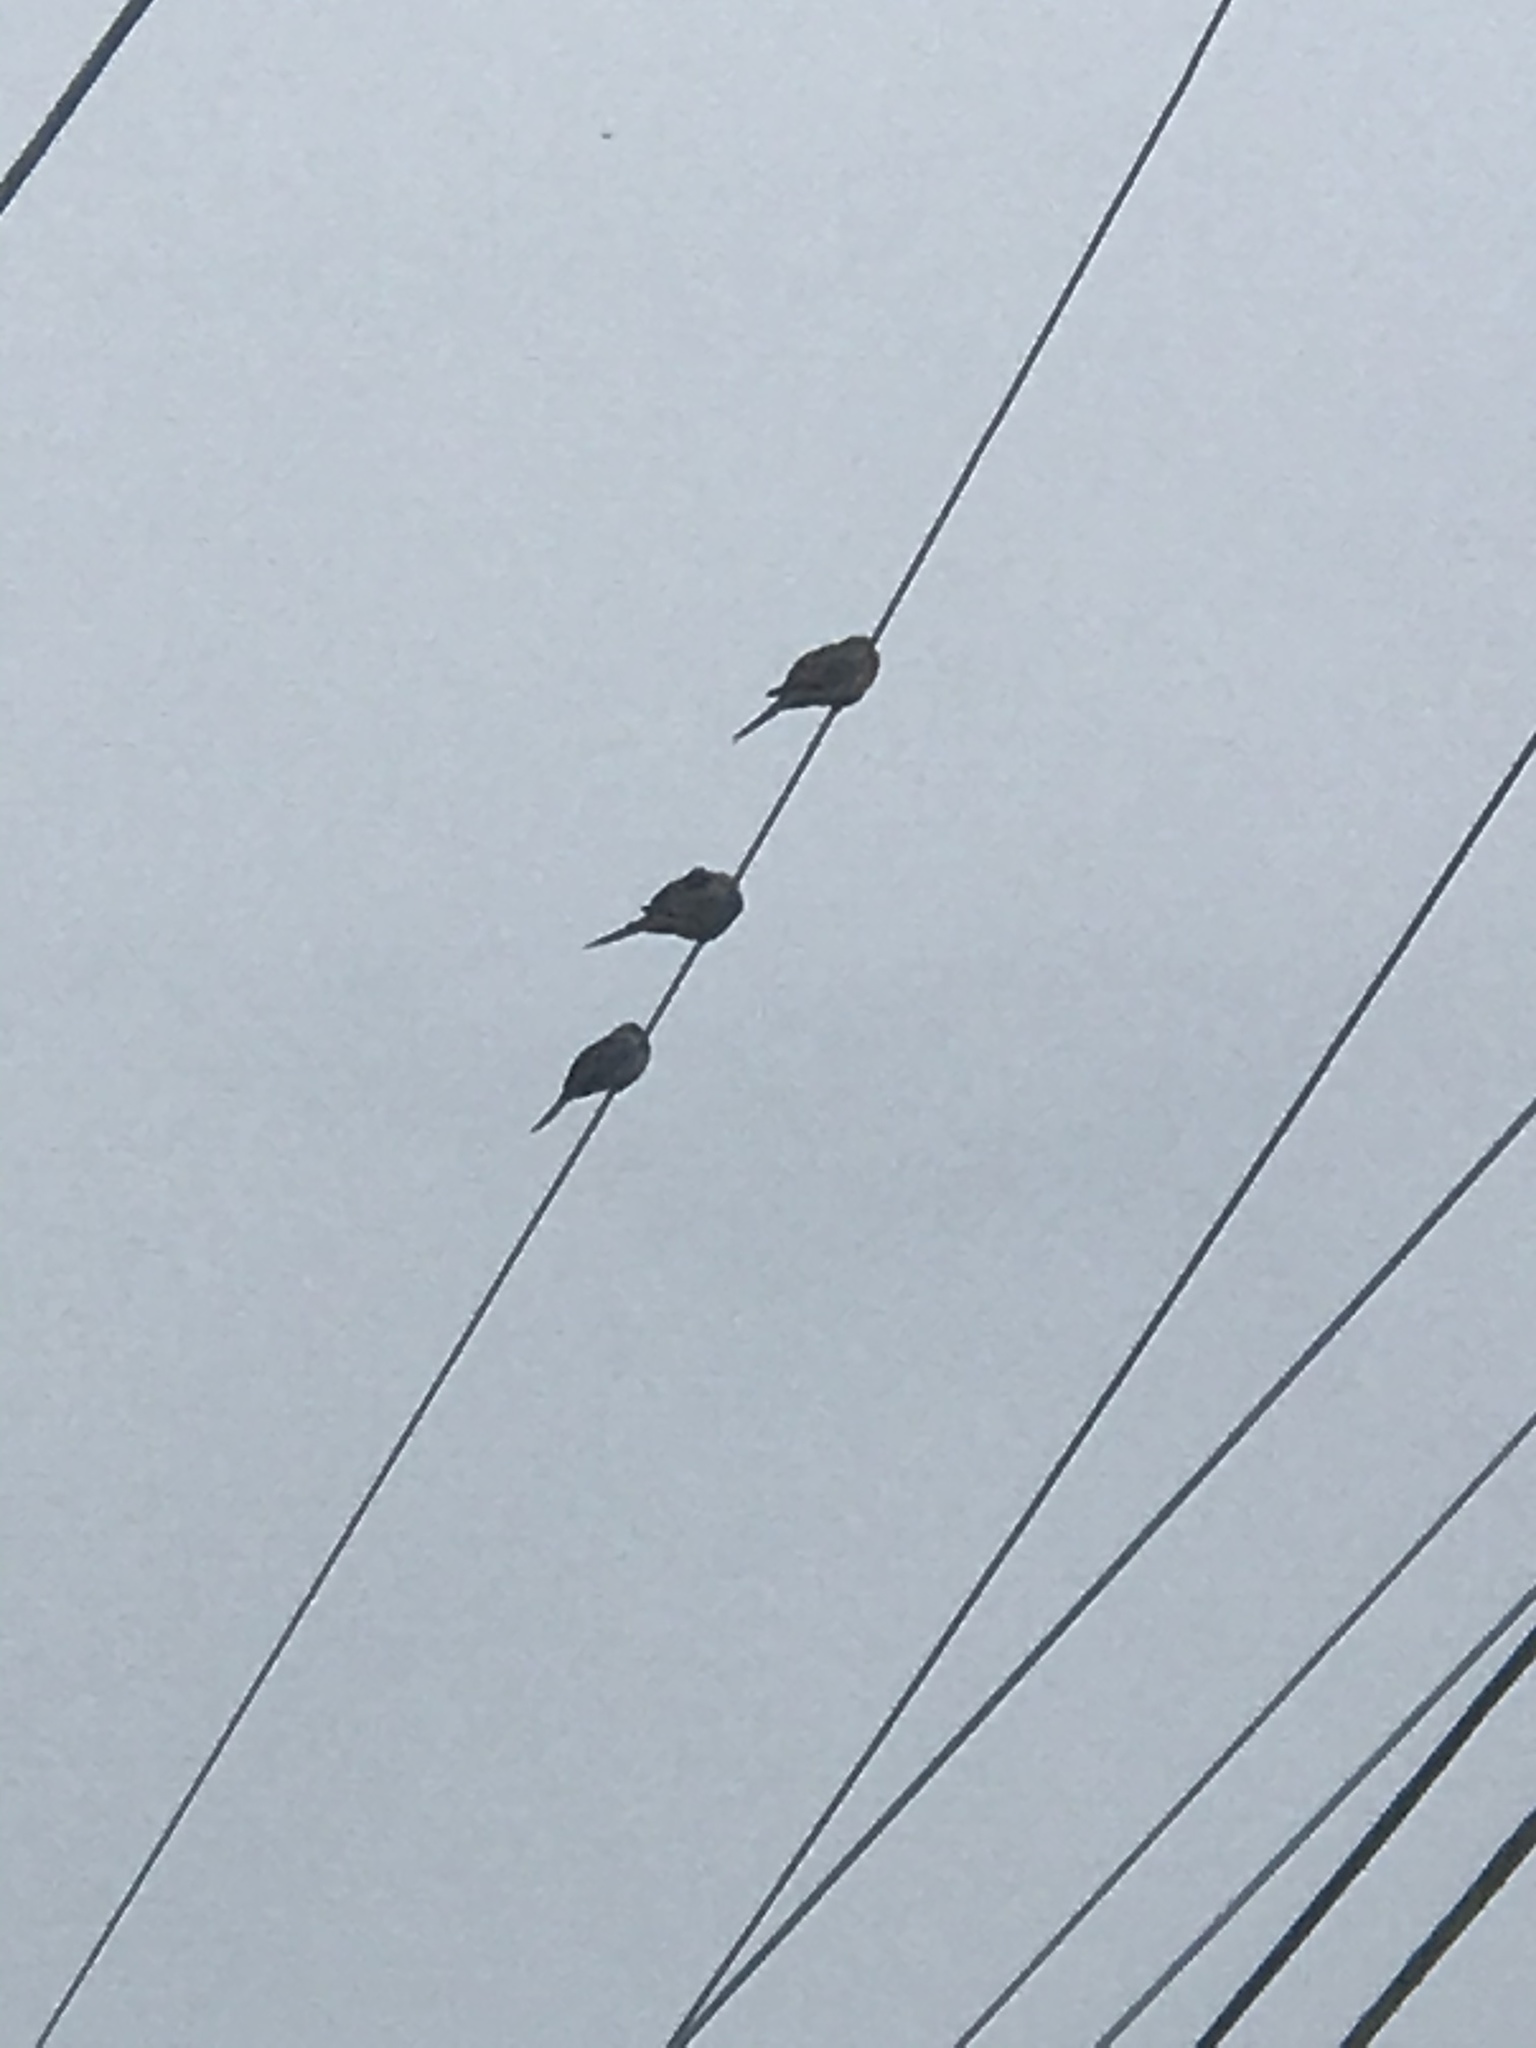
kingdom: Animalia
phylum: Chordata
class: Aves
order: Columbiformes
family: Columbidae
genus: Zenaida
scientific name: Zenaida macroura
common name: Mourning dove
